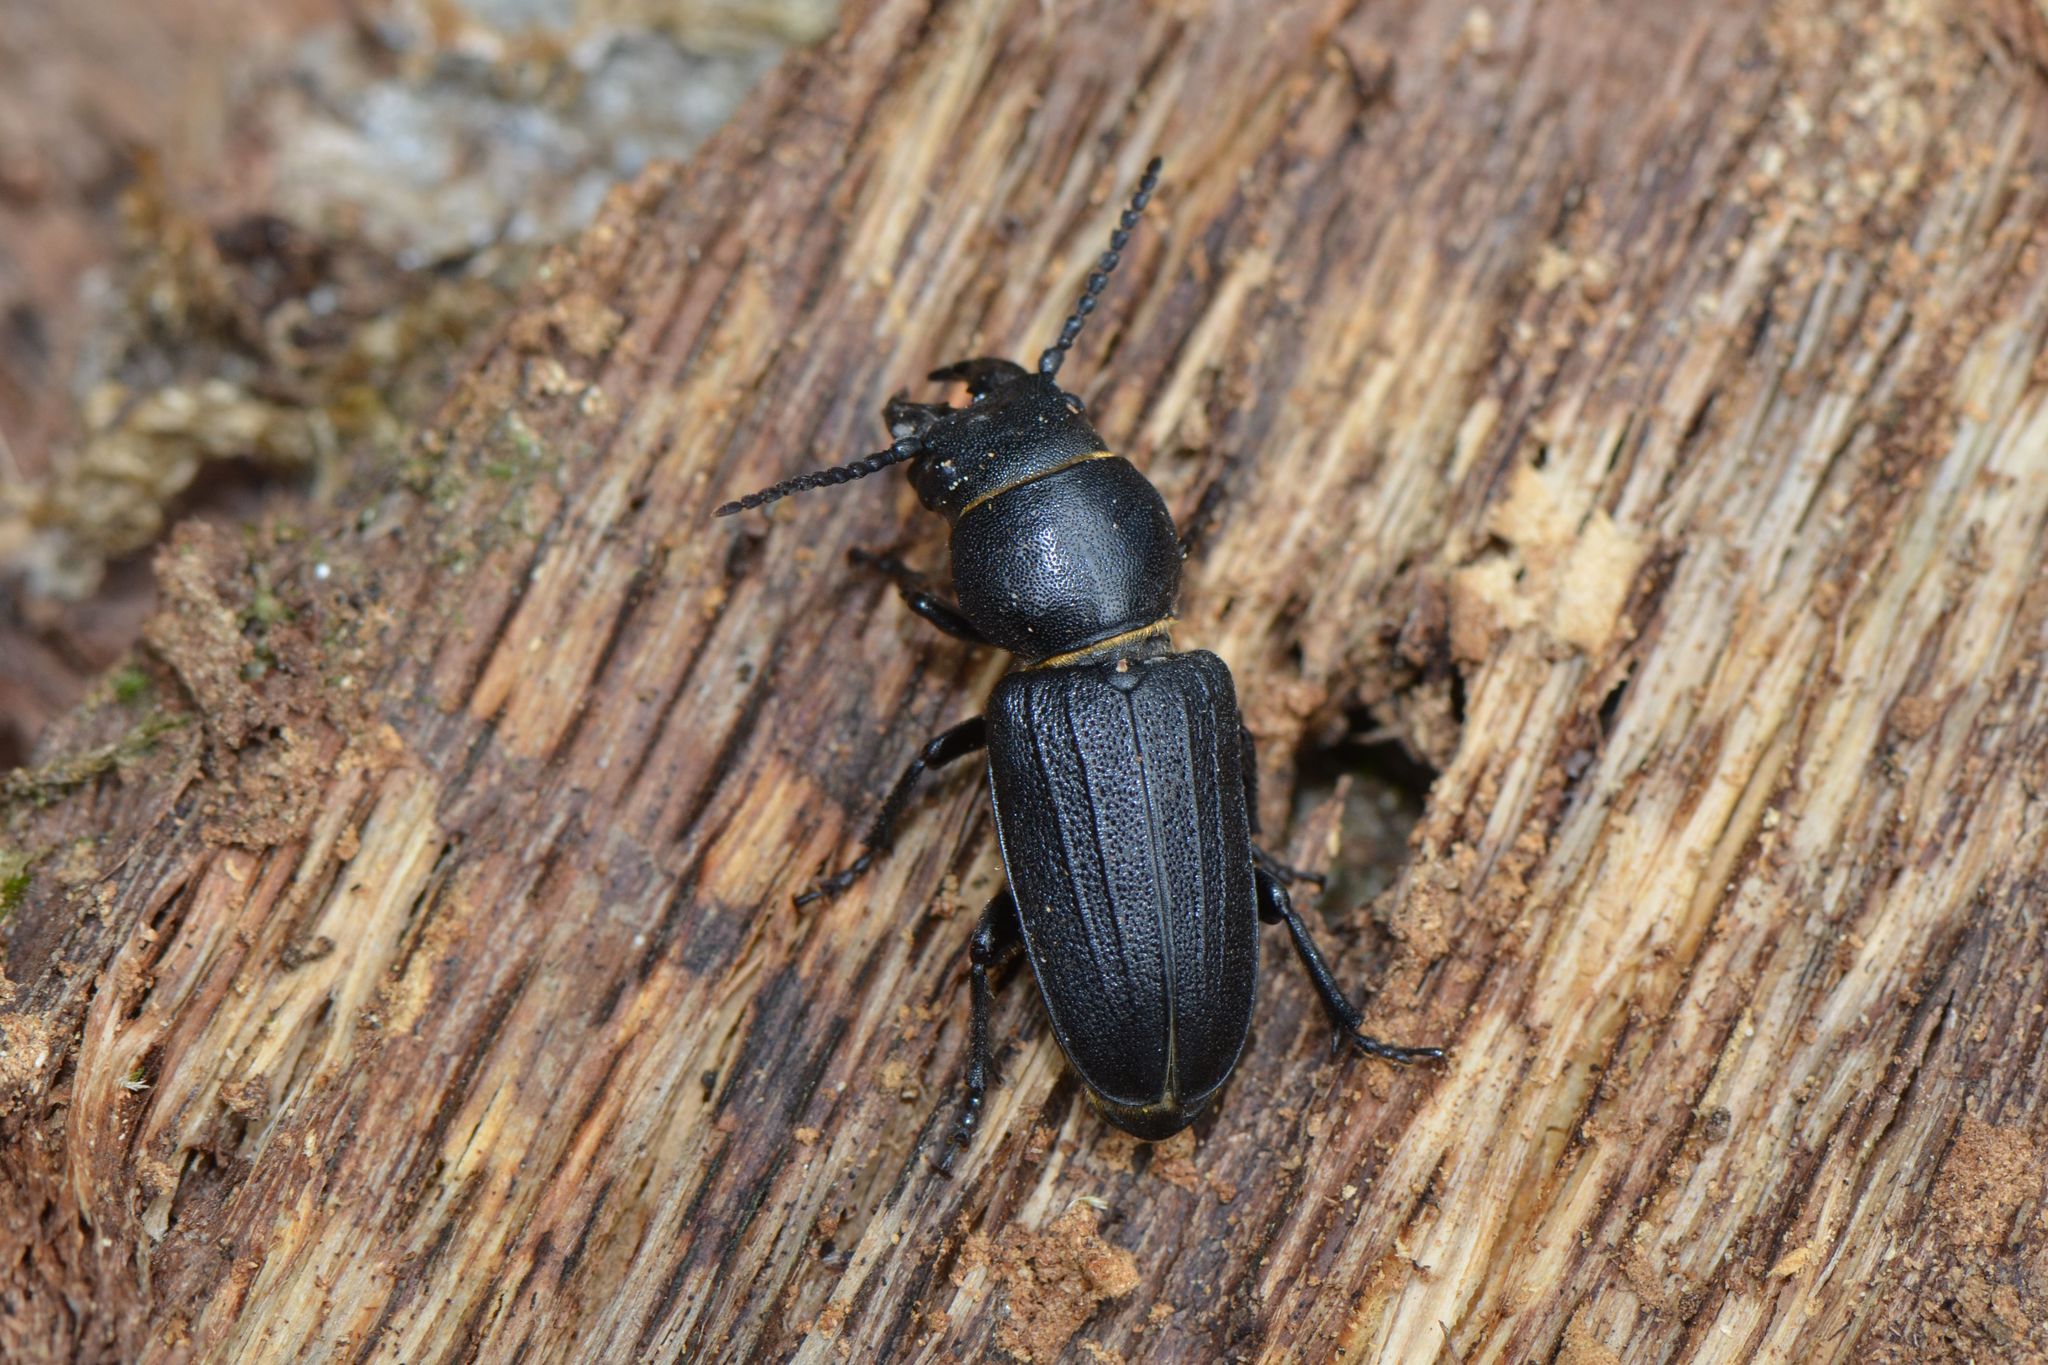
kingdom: Animalia
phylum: Arthropoda
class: Insecta
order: Coleoptera
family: Cerambycidae
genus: Spondylis
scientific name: Spondylis buprestoides
